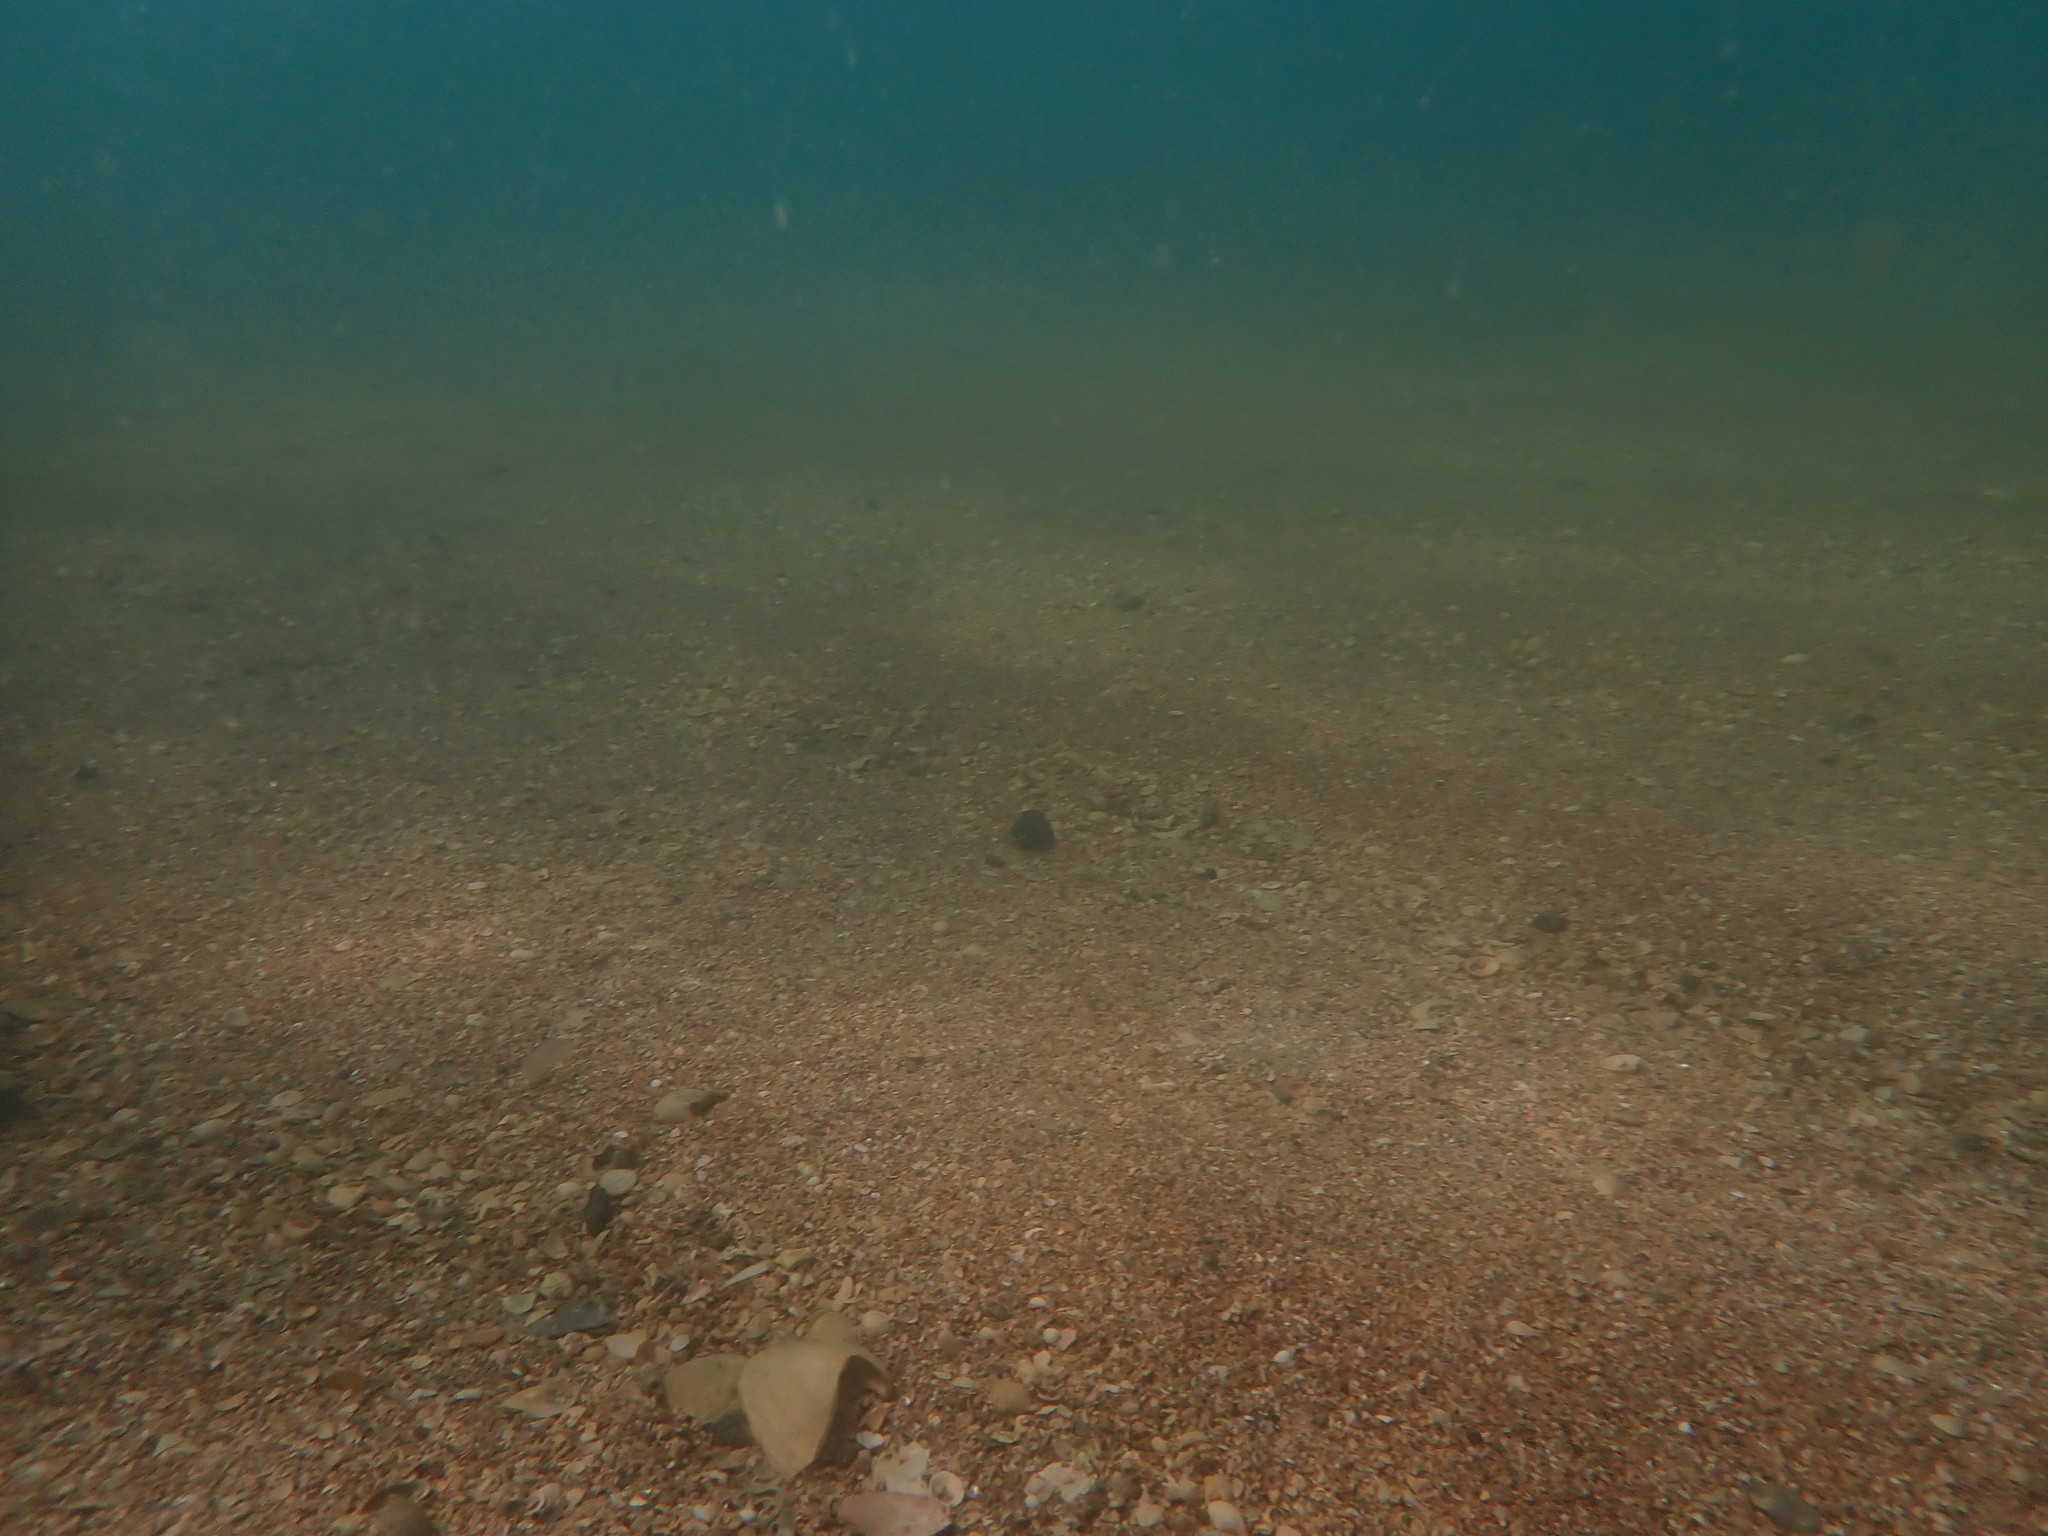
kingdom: Animalia
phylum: Echinodermata
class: Asteroidea
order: Valvatida
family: Asterinidae
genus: Patiriella
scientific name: Patiriella regularis
